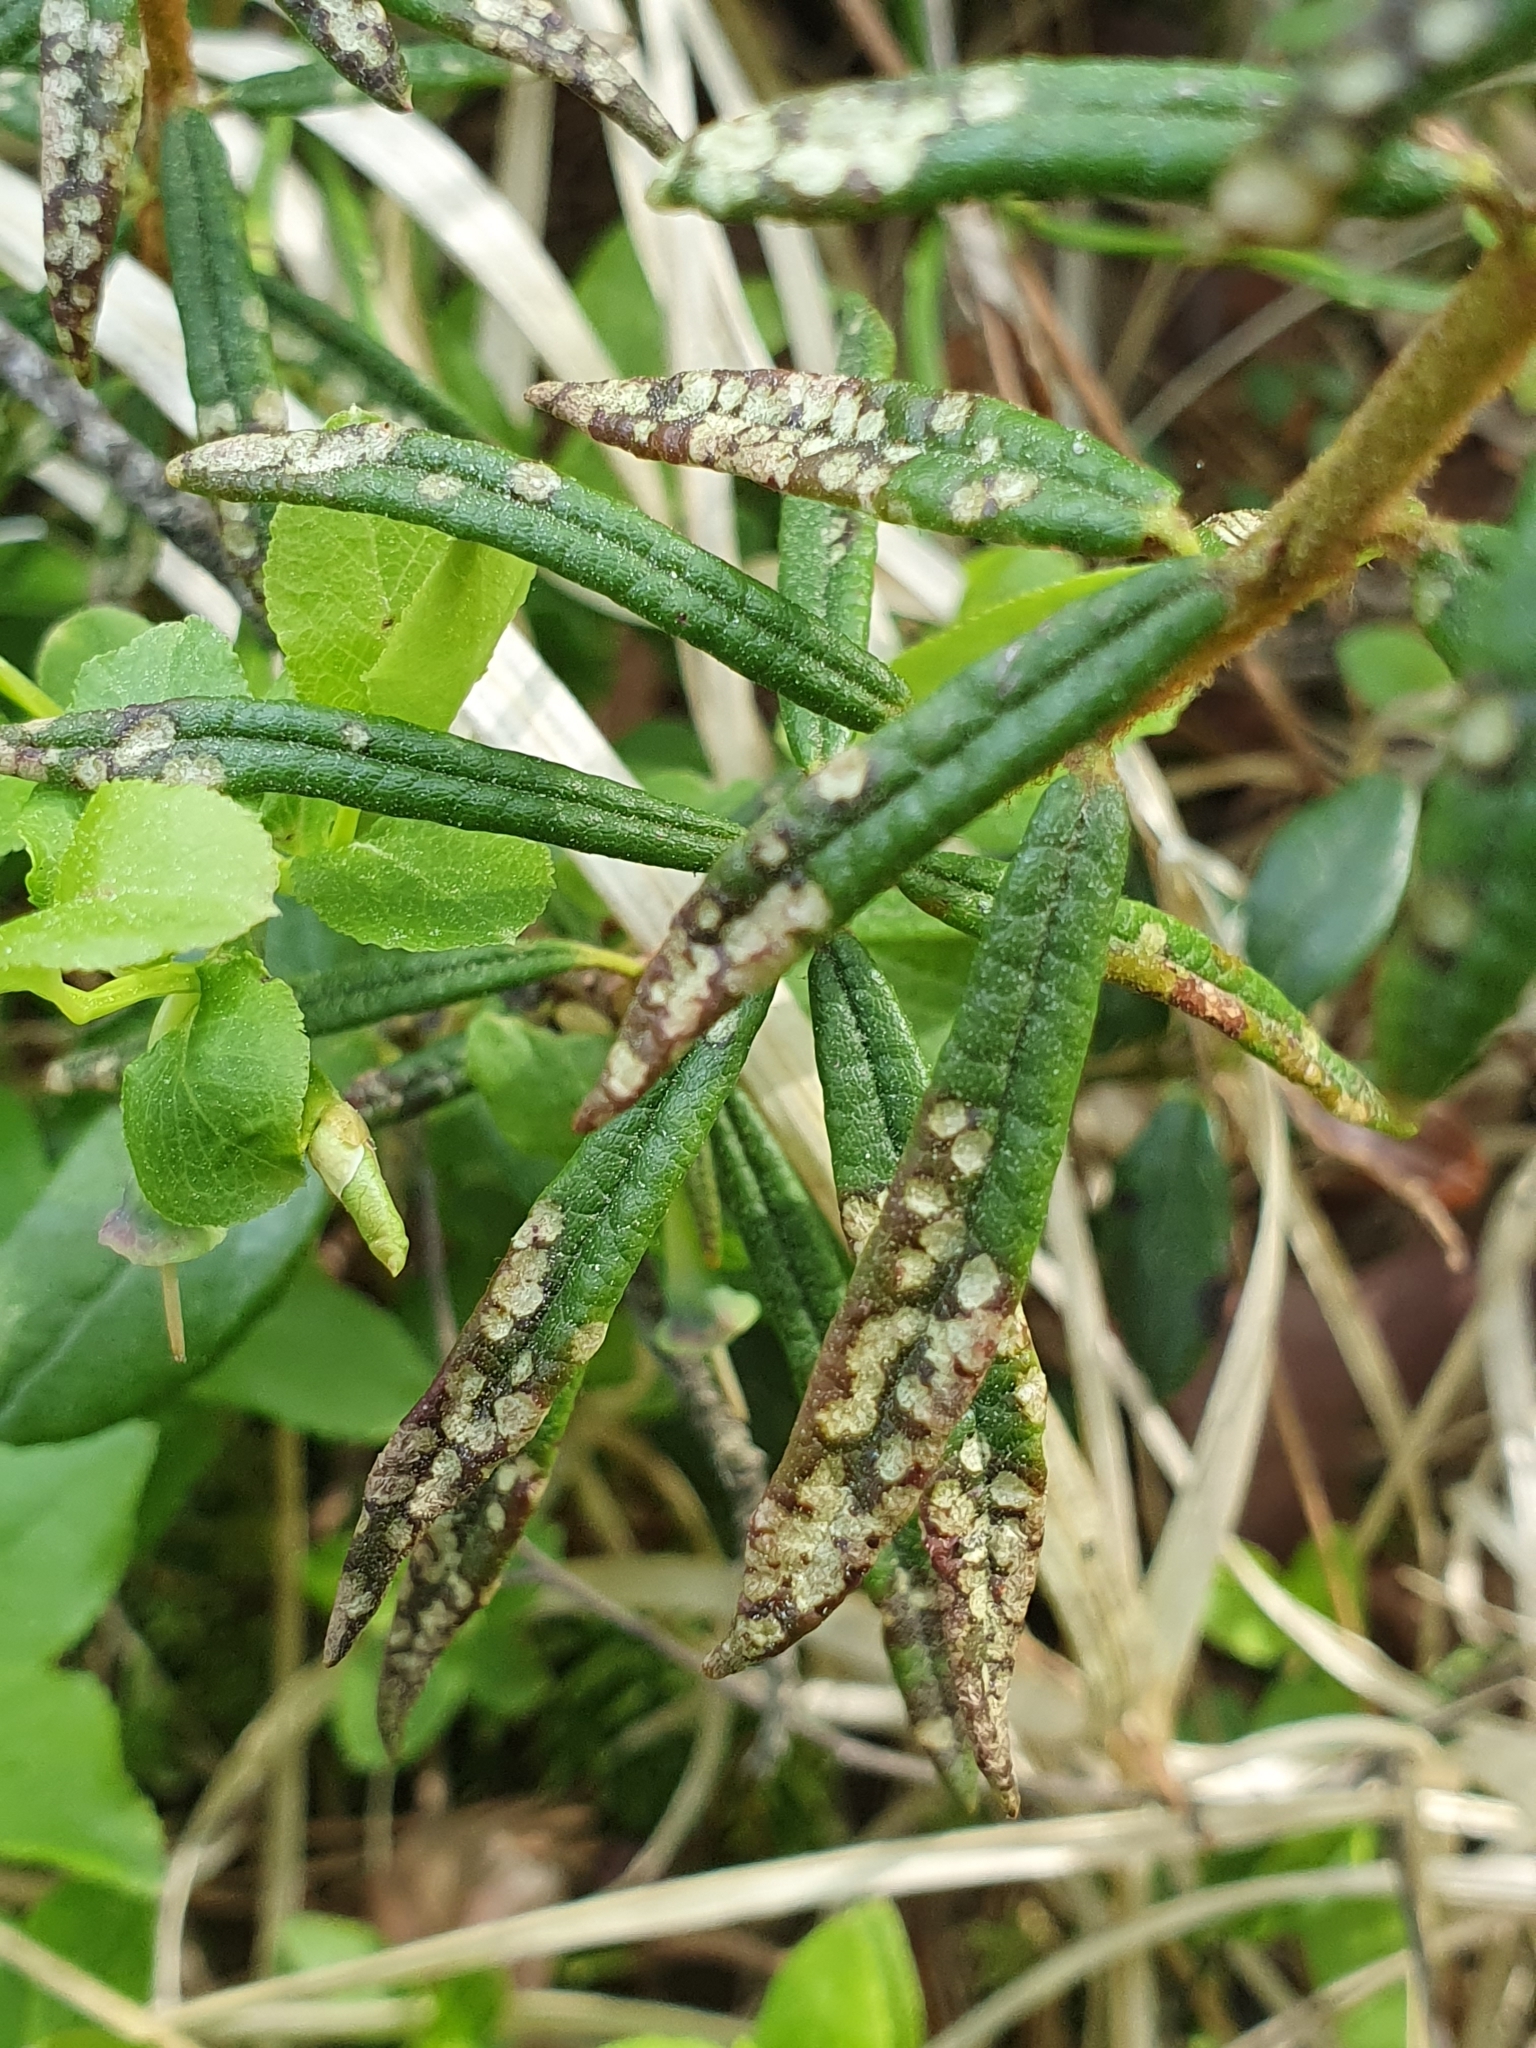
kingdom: Fungi
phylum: Basidiomycota
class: Exobasidiomycetes
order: Exobasidiales
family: Exobasidiaceae
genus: Exobasidium
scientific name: Exobasidium ledi
